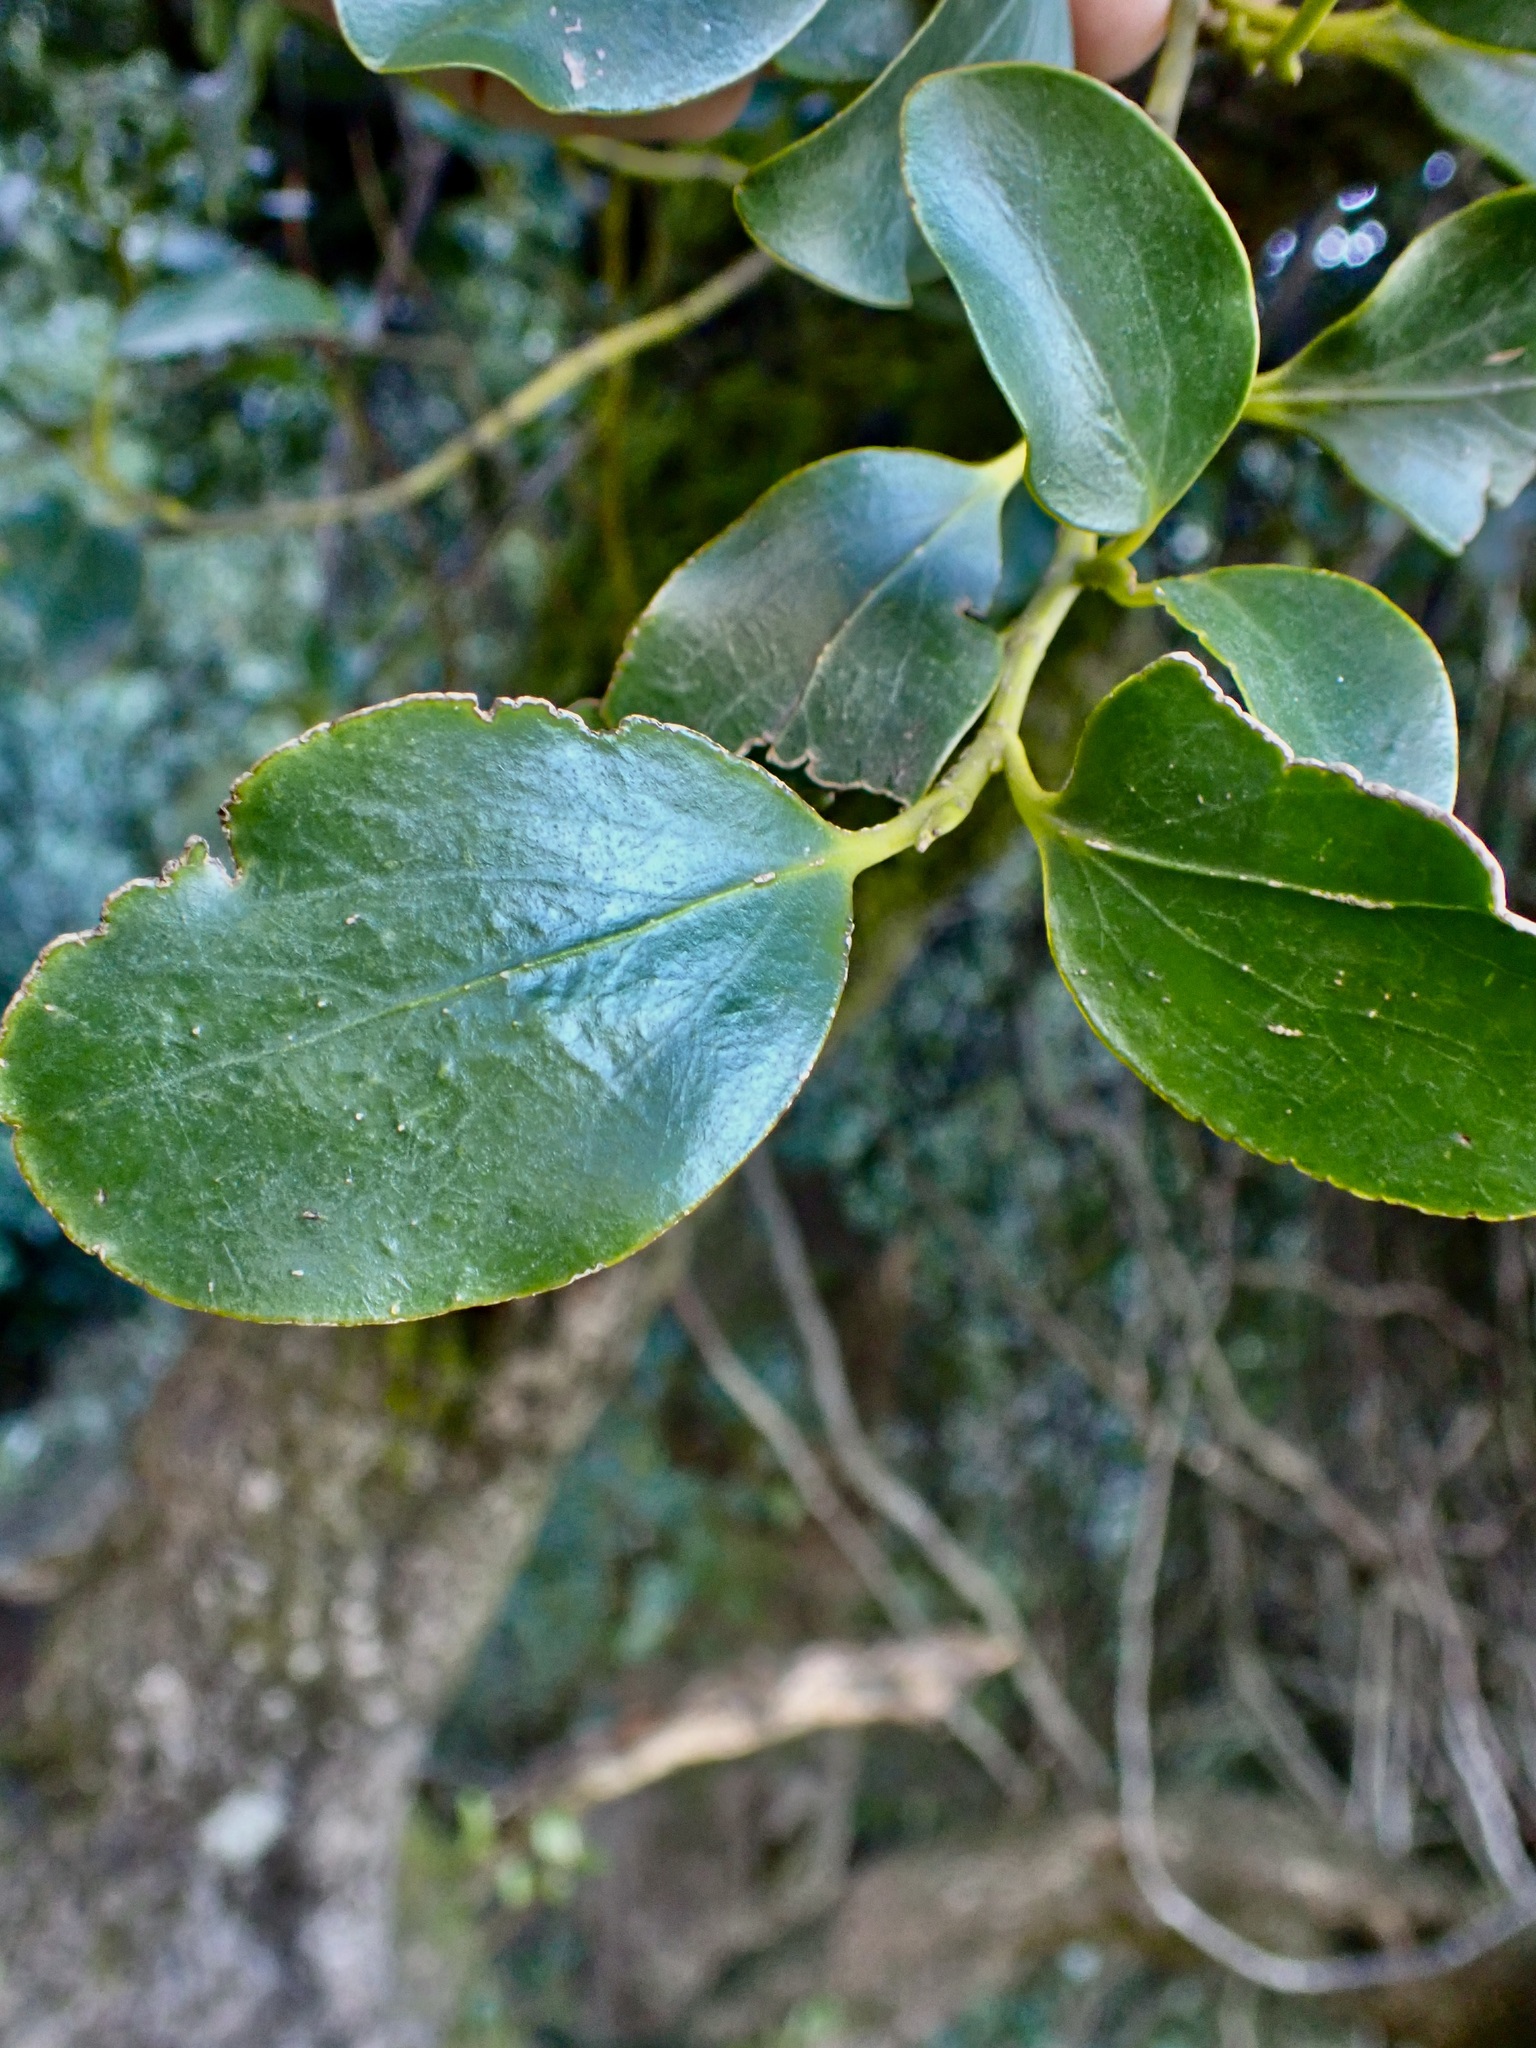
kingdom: Plantae
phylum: Tracheophyta
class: Magnoliopsida
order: Apiales
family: Griseliniaceae
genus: Griselinia
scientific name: Griselinia littoralis
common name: New zealand broadleaf
